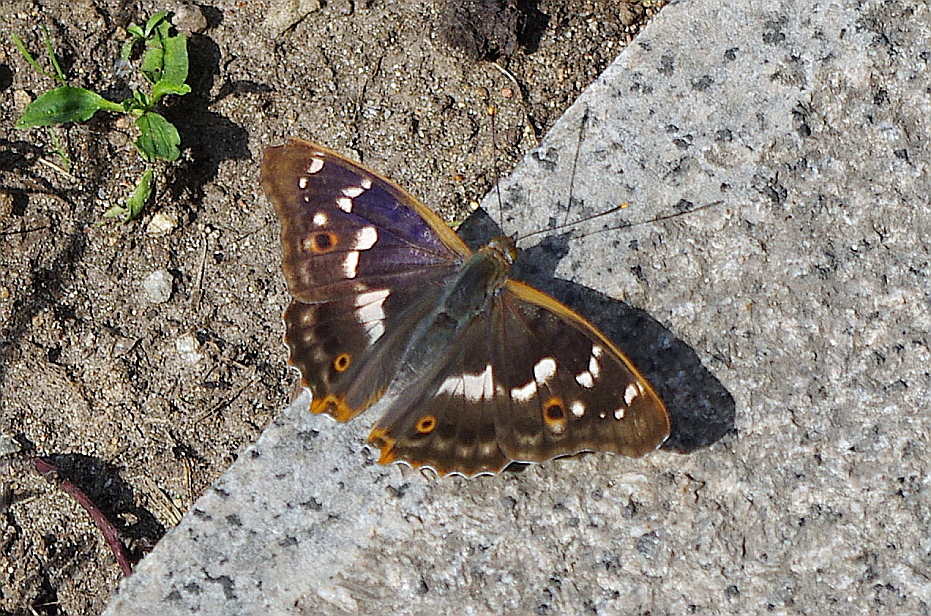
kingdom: Animalia
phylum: Arthropoda
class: Insecta
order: Lepidoptera
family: Nymphalidae
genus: Apatura
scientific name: Apatura ilia
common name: Lesser purple emperor
